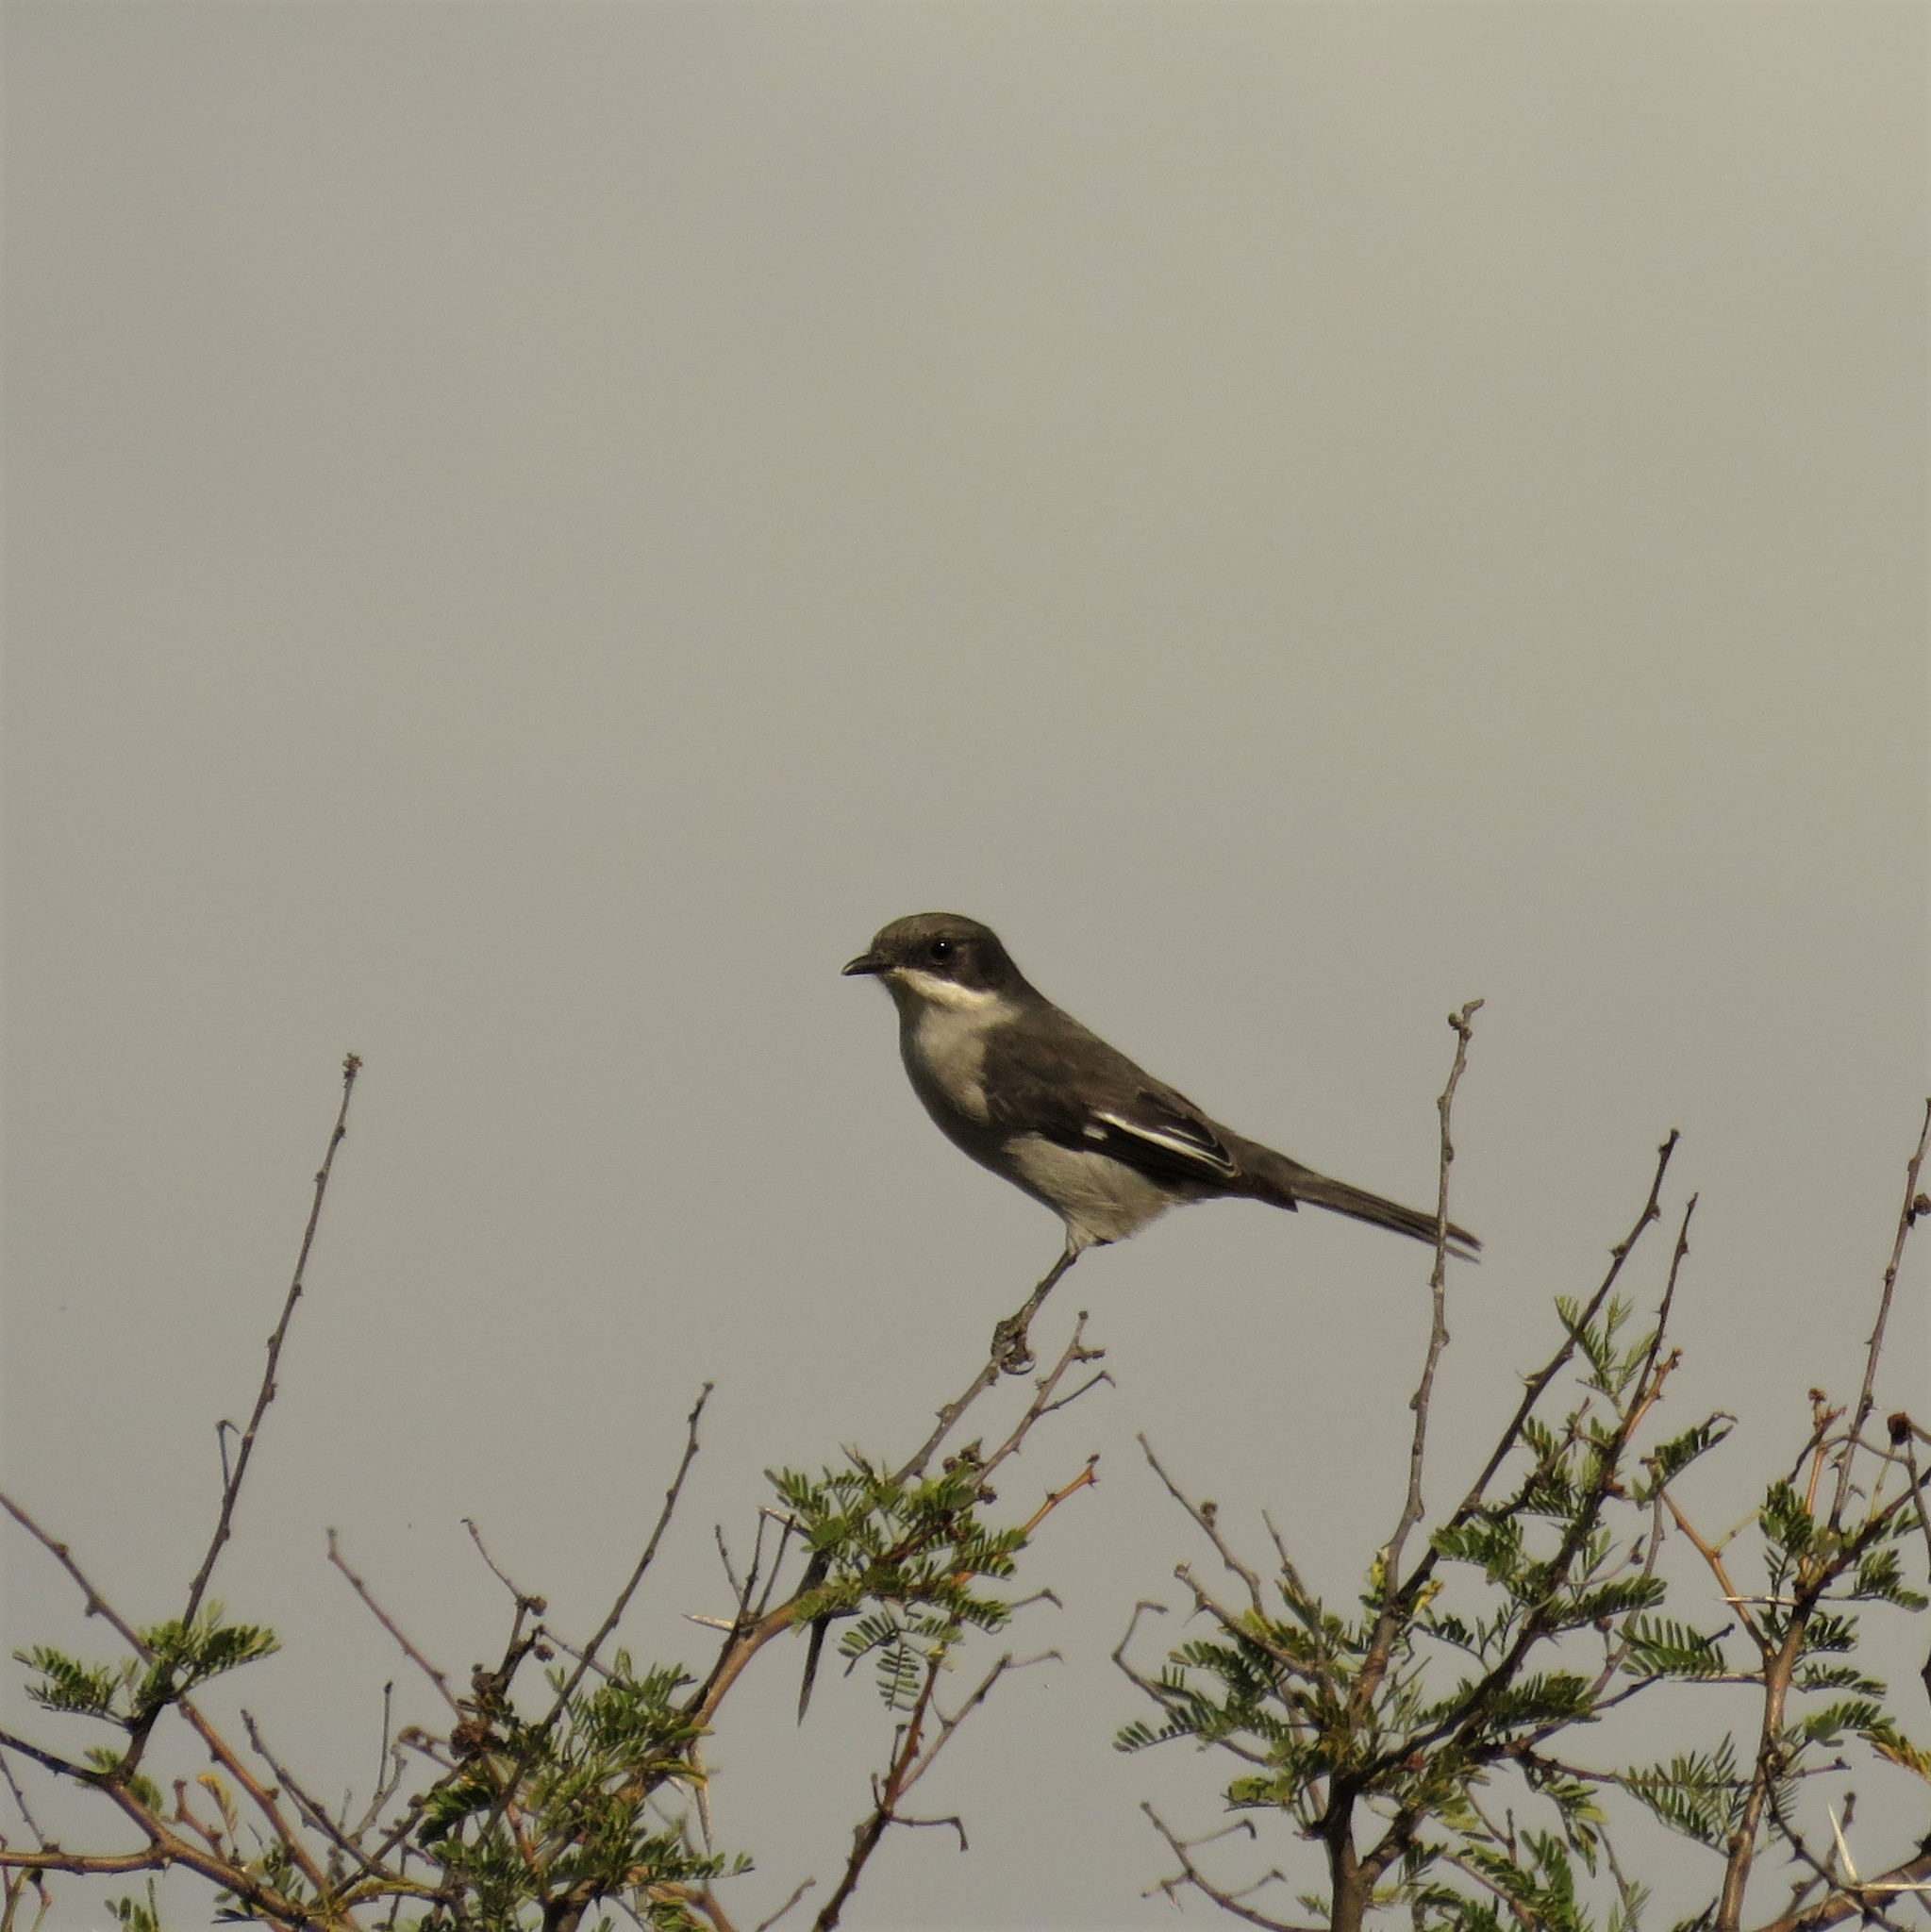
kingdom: Animalia
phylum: Chordata
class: Aves
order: Passeriformes
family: Muscicapidae
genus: Sigelus
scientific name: Sigelus silens
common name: Fiscal flycatcher
